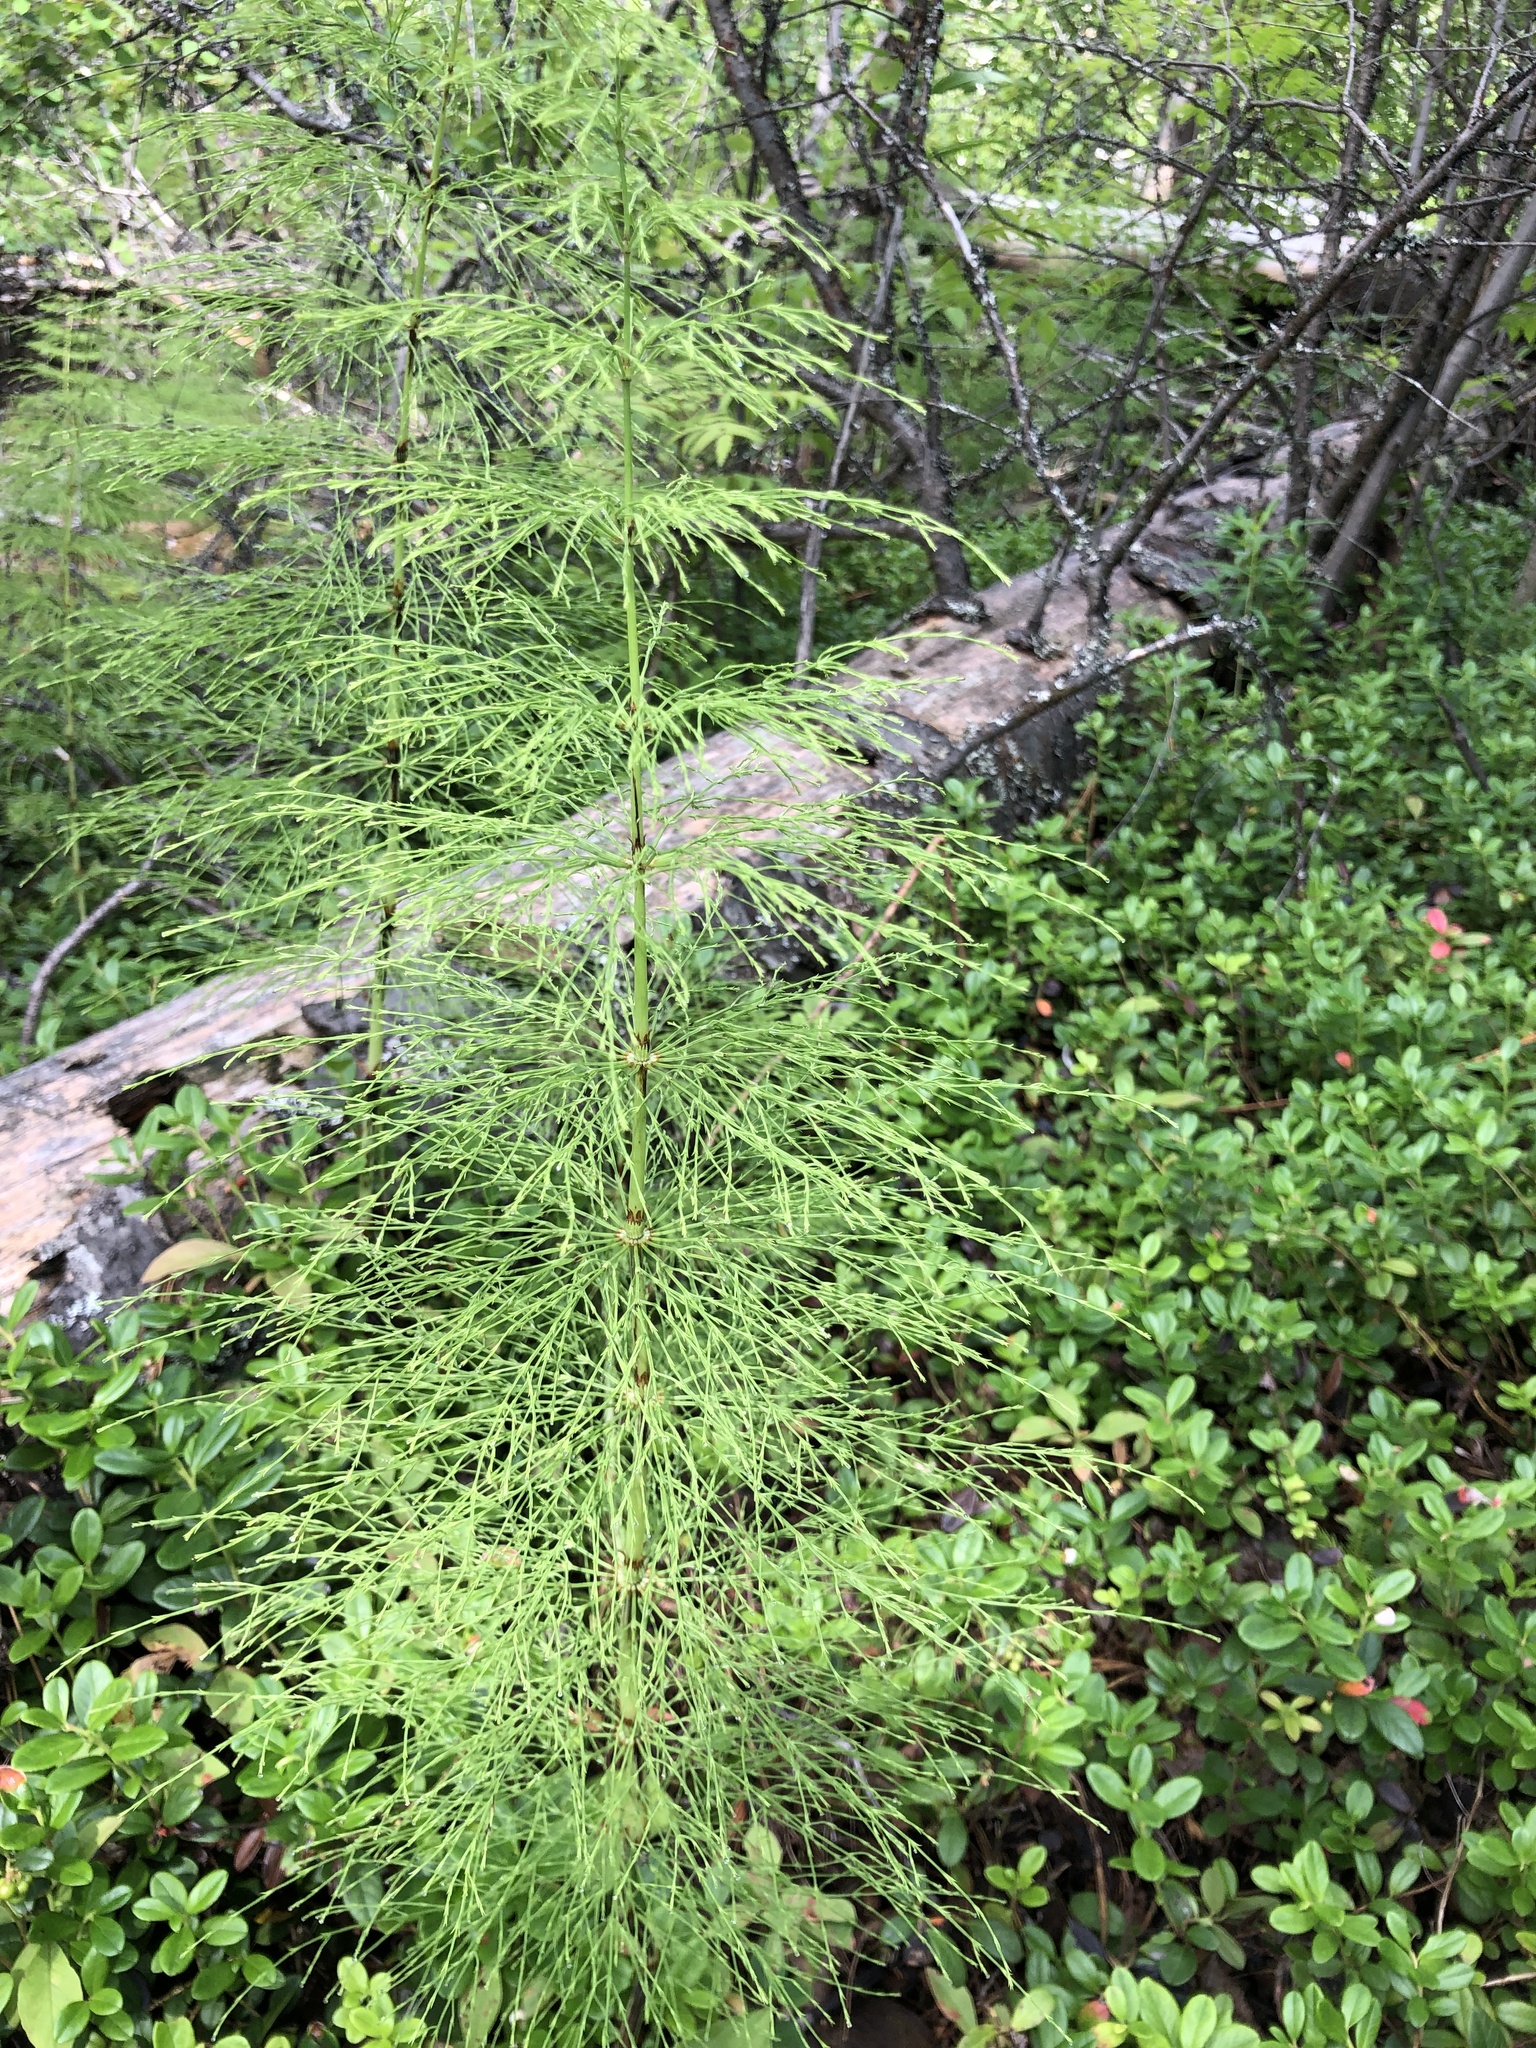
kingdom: Plantae
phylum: Tracheophyta
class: Polypodiopsida
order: Equisetales
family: Equisetaceae
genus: Equisetum
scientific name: Equisetum sylvaticum
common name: Wood horsetail
